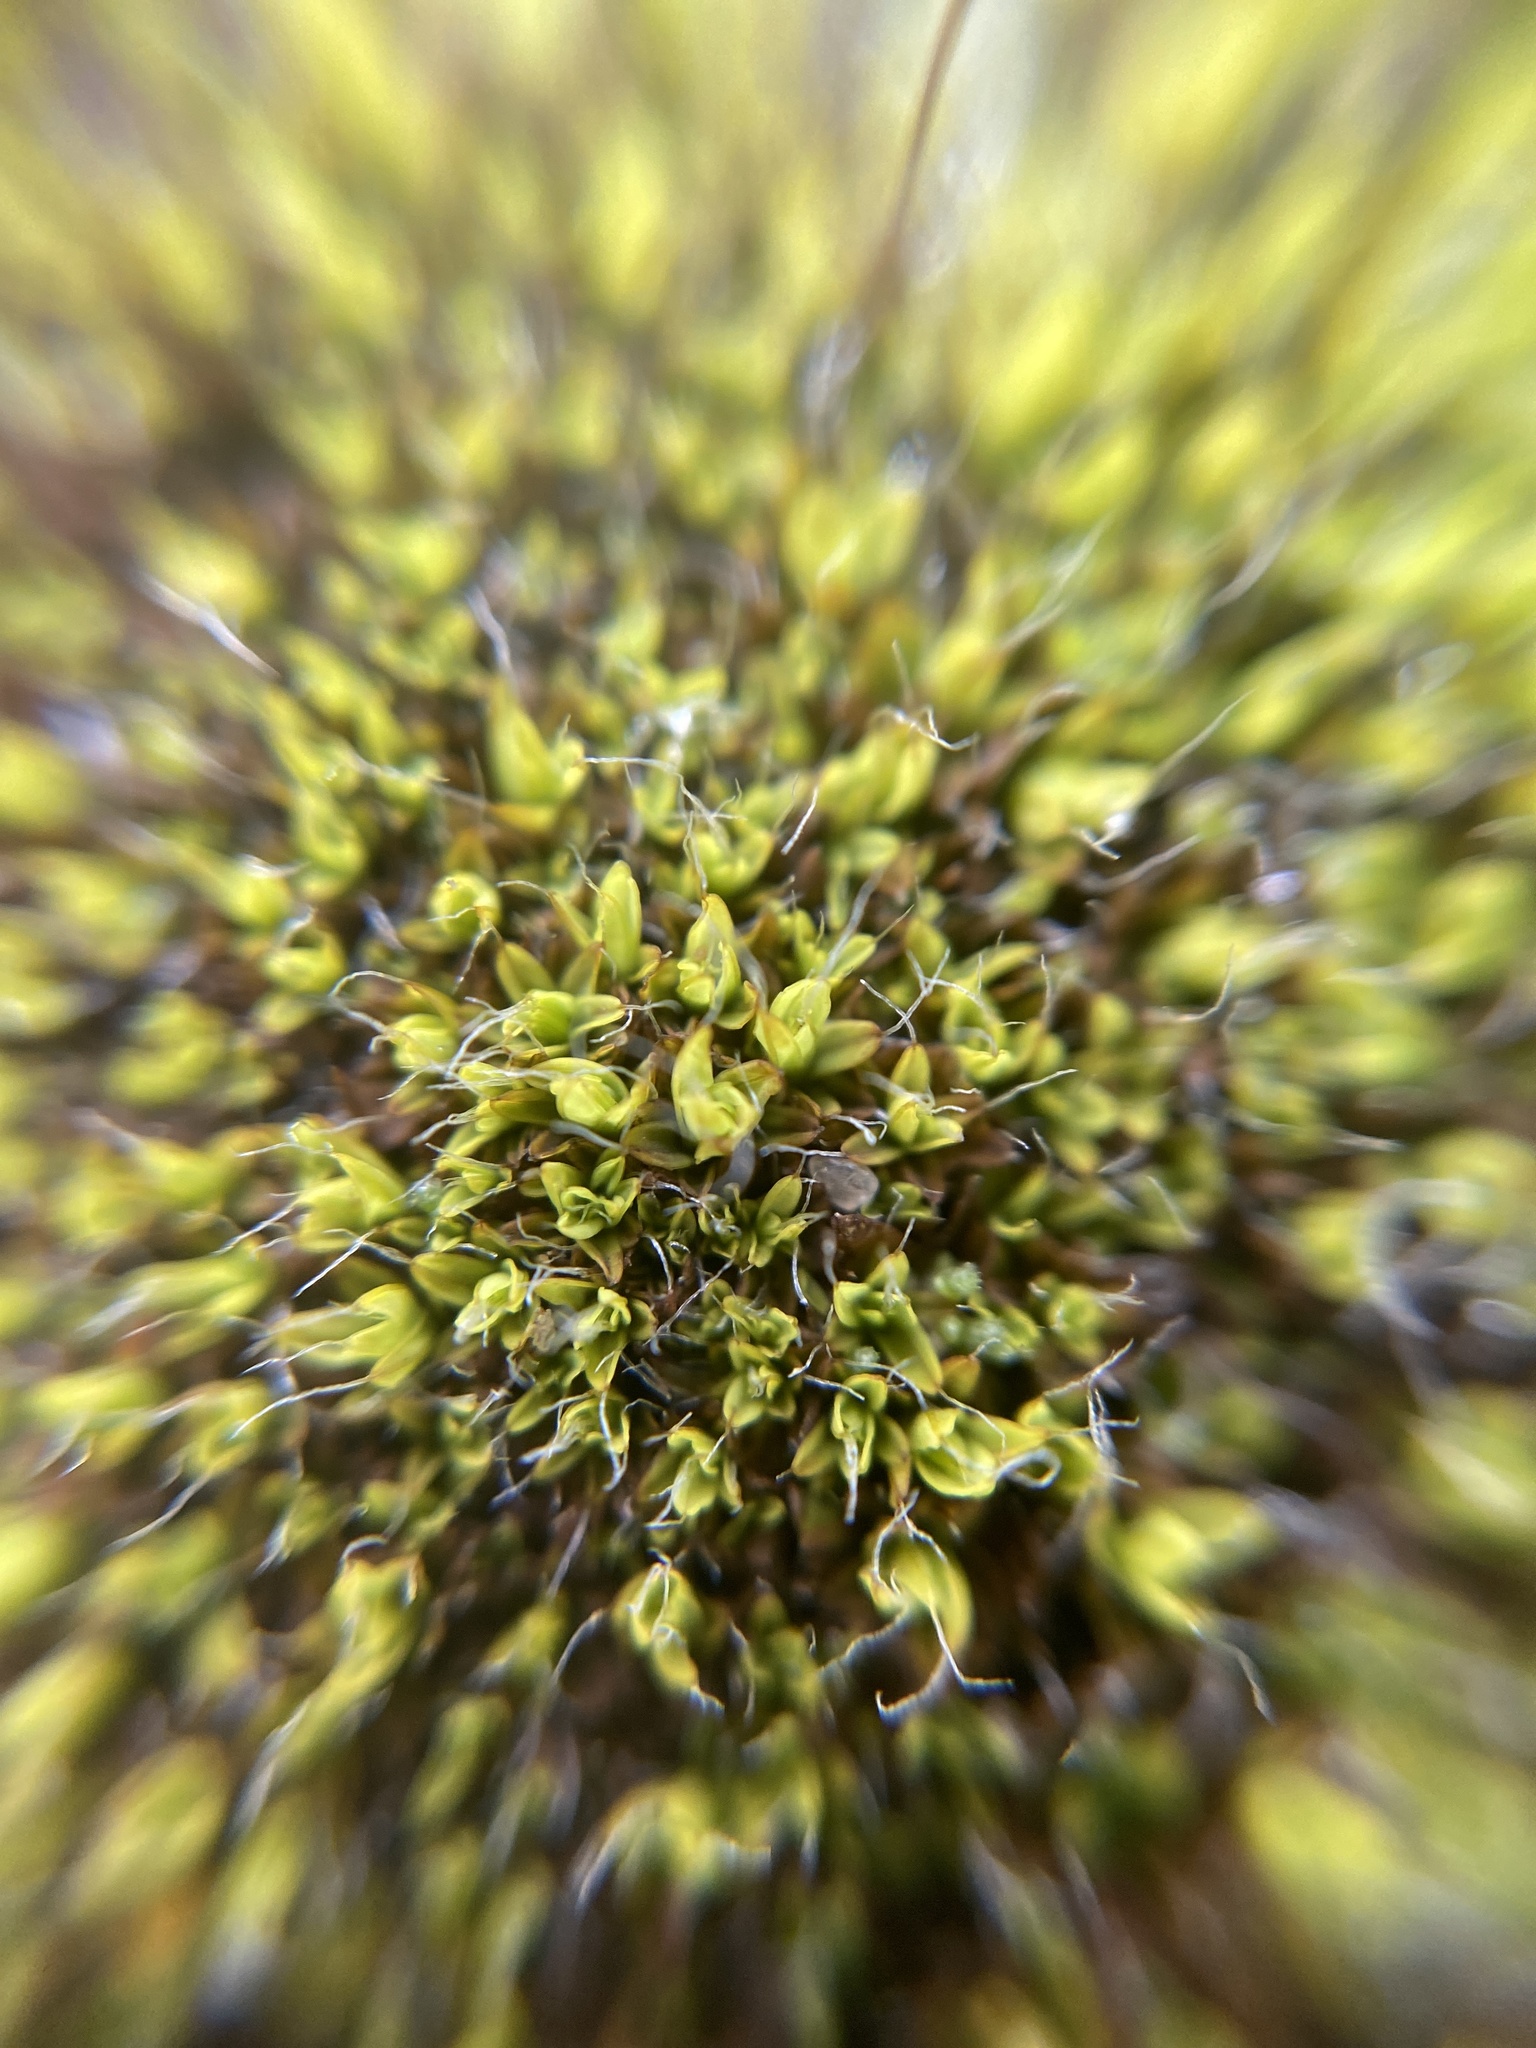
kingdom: Plantae
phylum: Bryophyta
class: Bryopsida
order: Pottiales
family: Pottiaceae
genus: Tortula
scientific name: Tortula muralis
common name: Wall screw-moss
